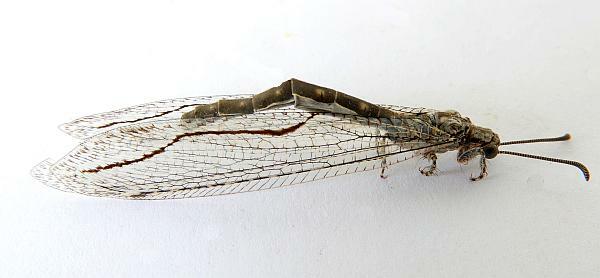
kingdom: Animalia
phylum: Arthropoda
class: Insecta
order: Neuroptera
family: Myrmeleontidae
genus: Euptilon
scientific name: Euptilon sinuatum
